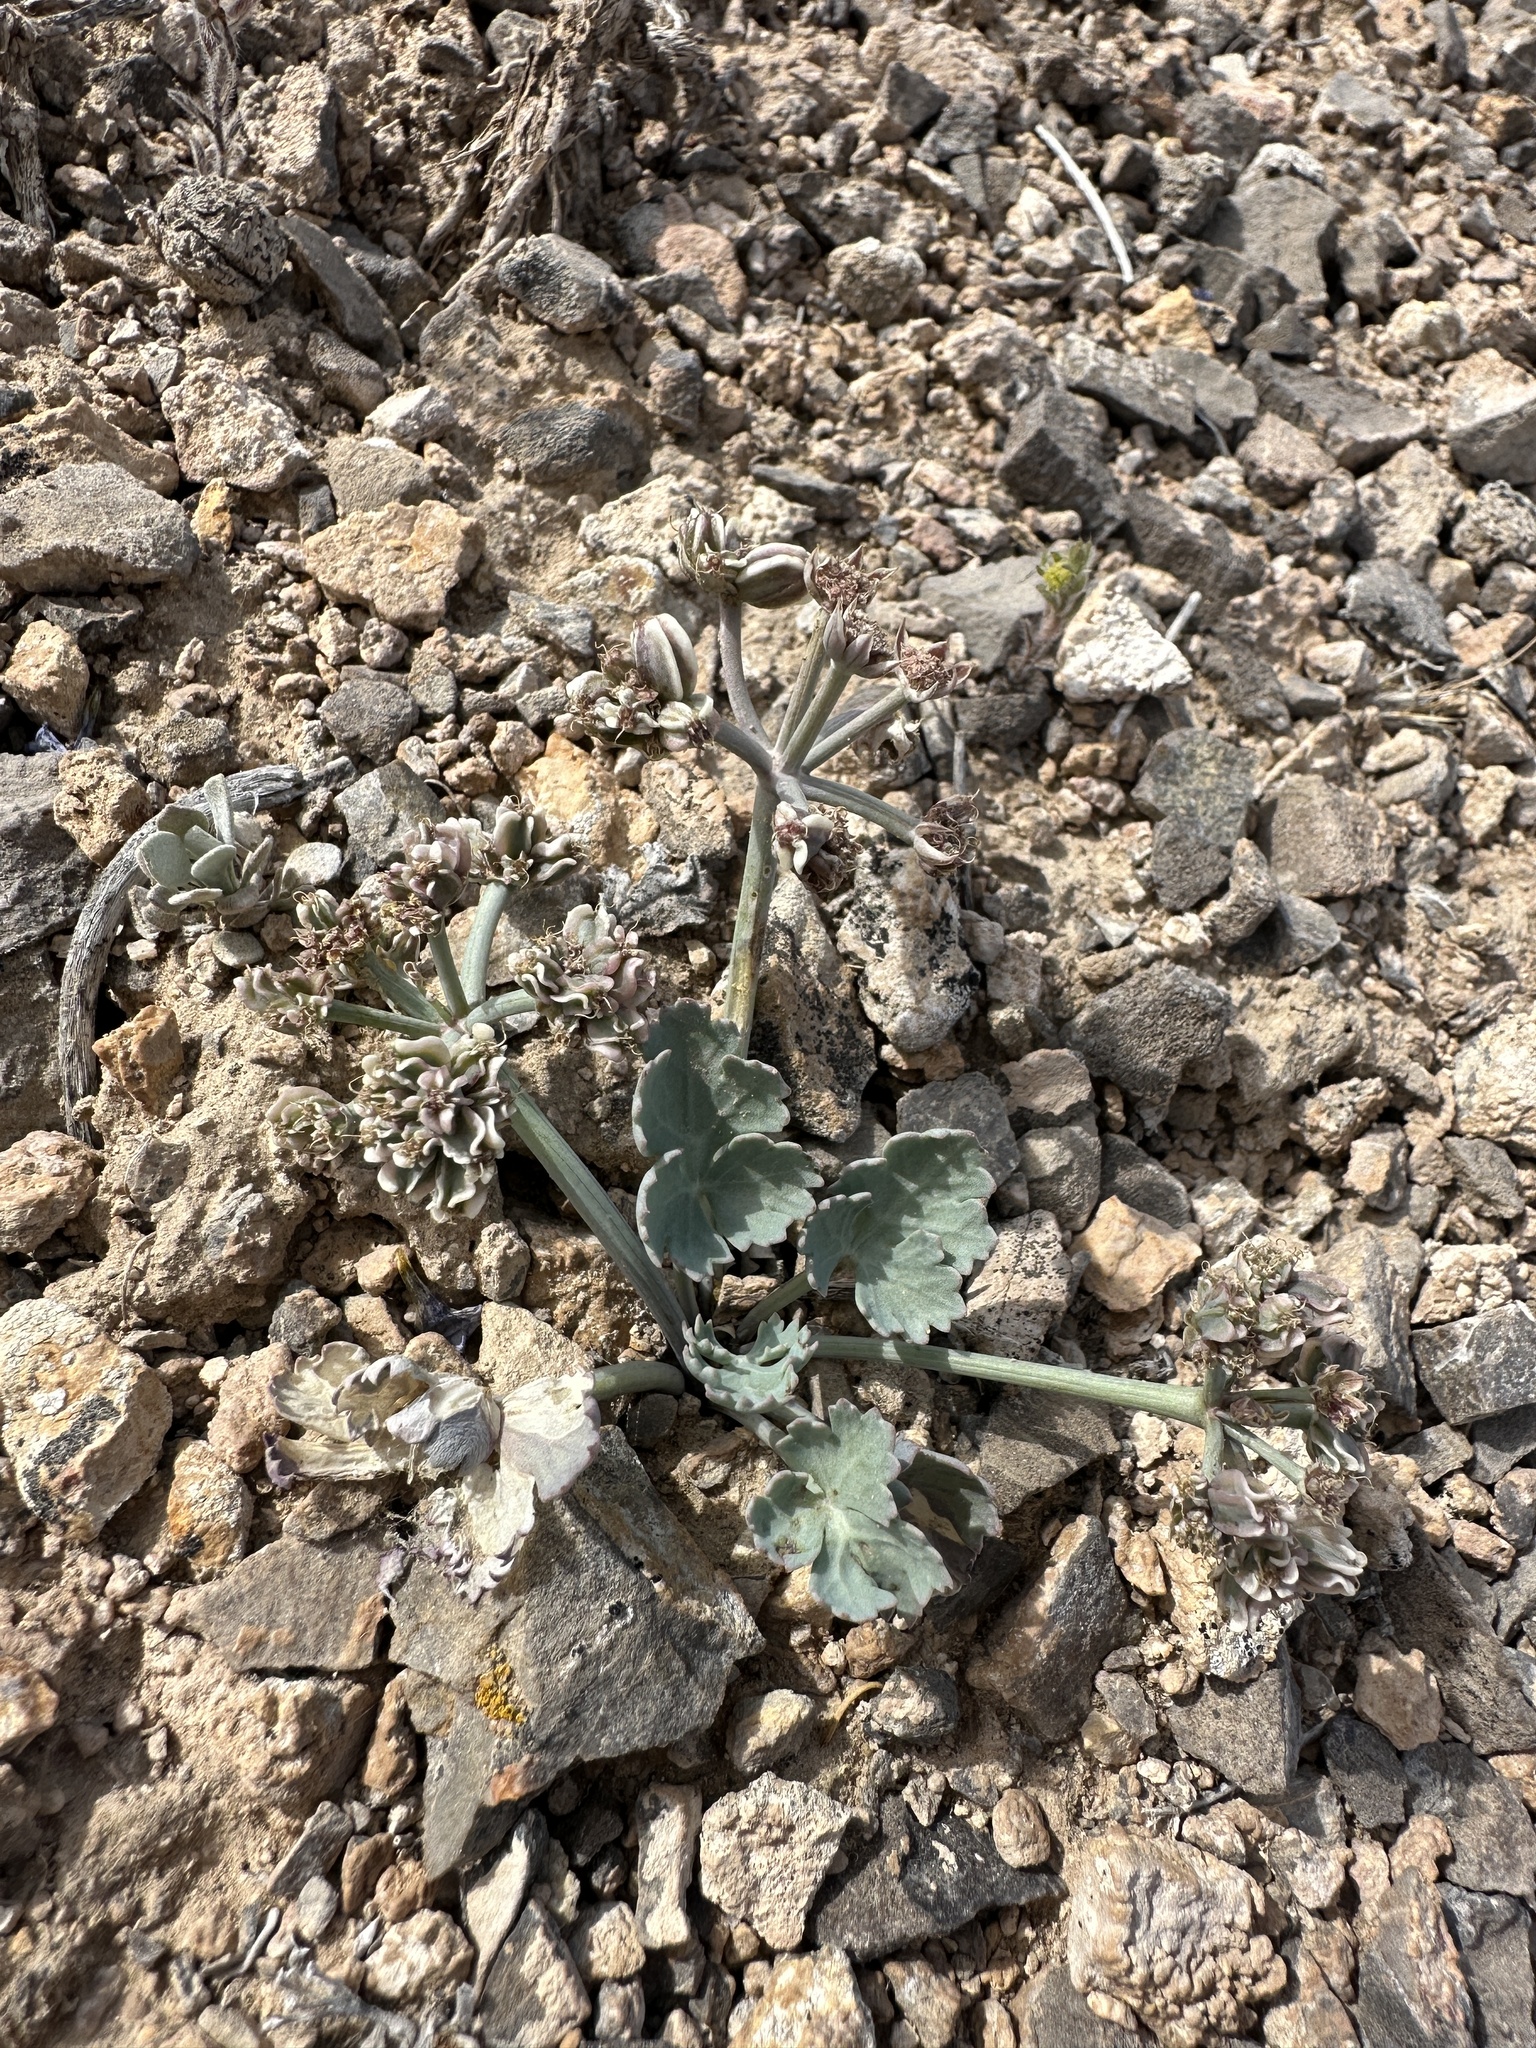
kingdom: Plantae
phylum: Tracheophyta
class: Magnoliopsida
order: Apiales
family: Apiaceae
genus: Aulospermum
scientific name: Aulospermum basalticum
